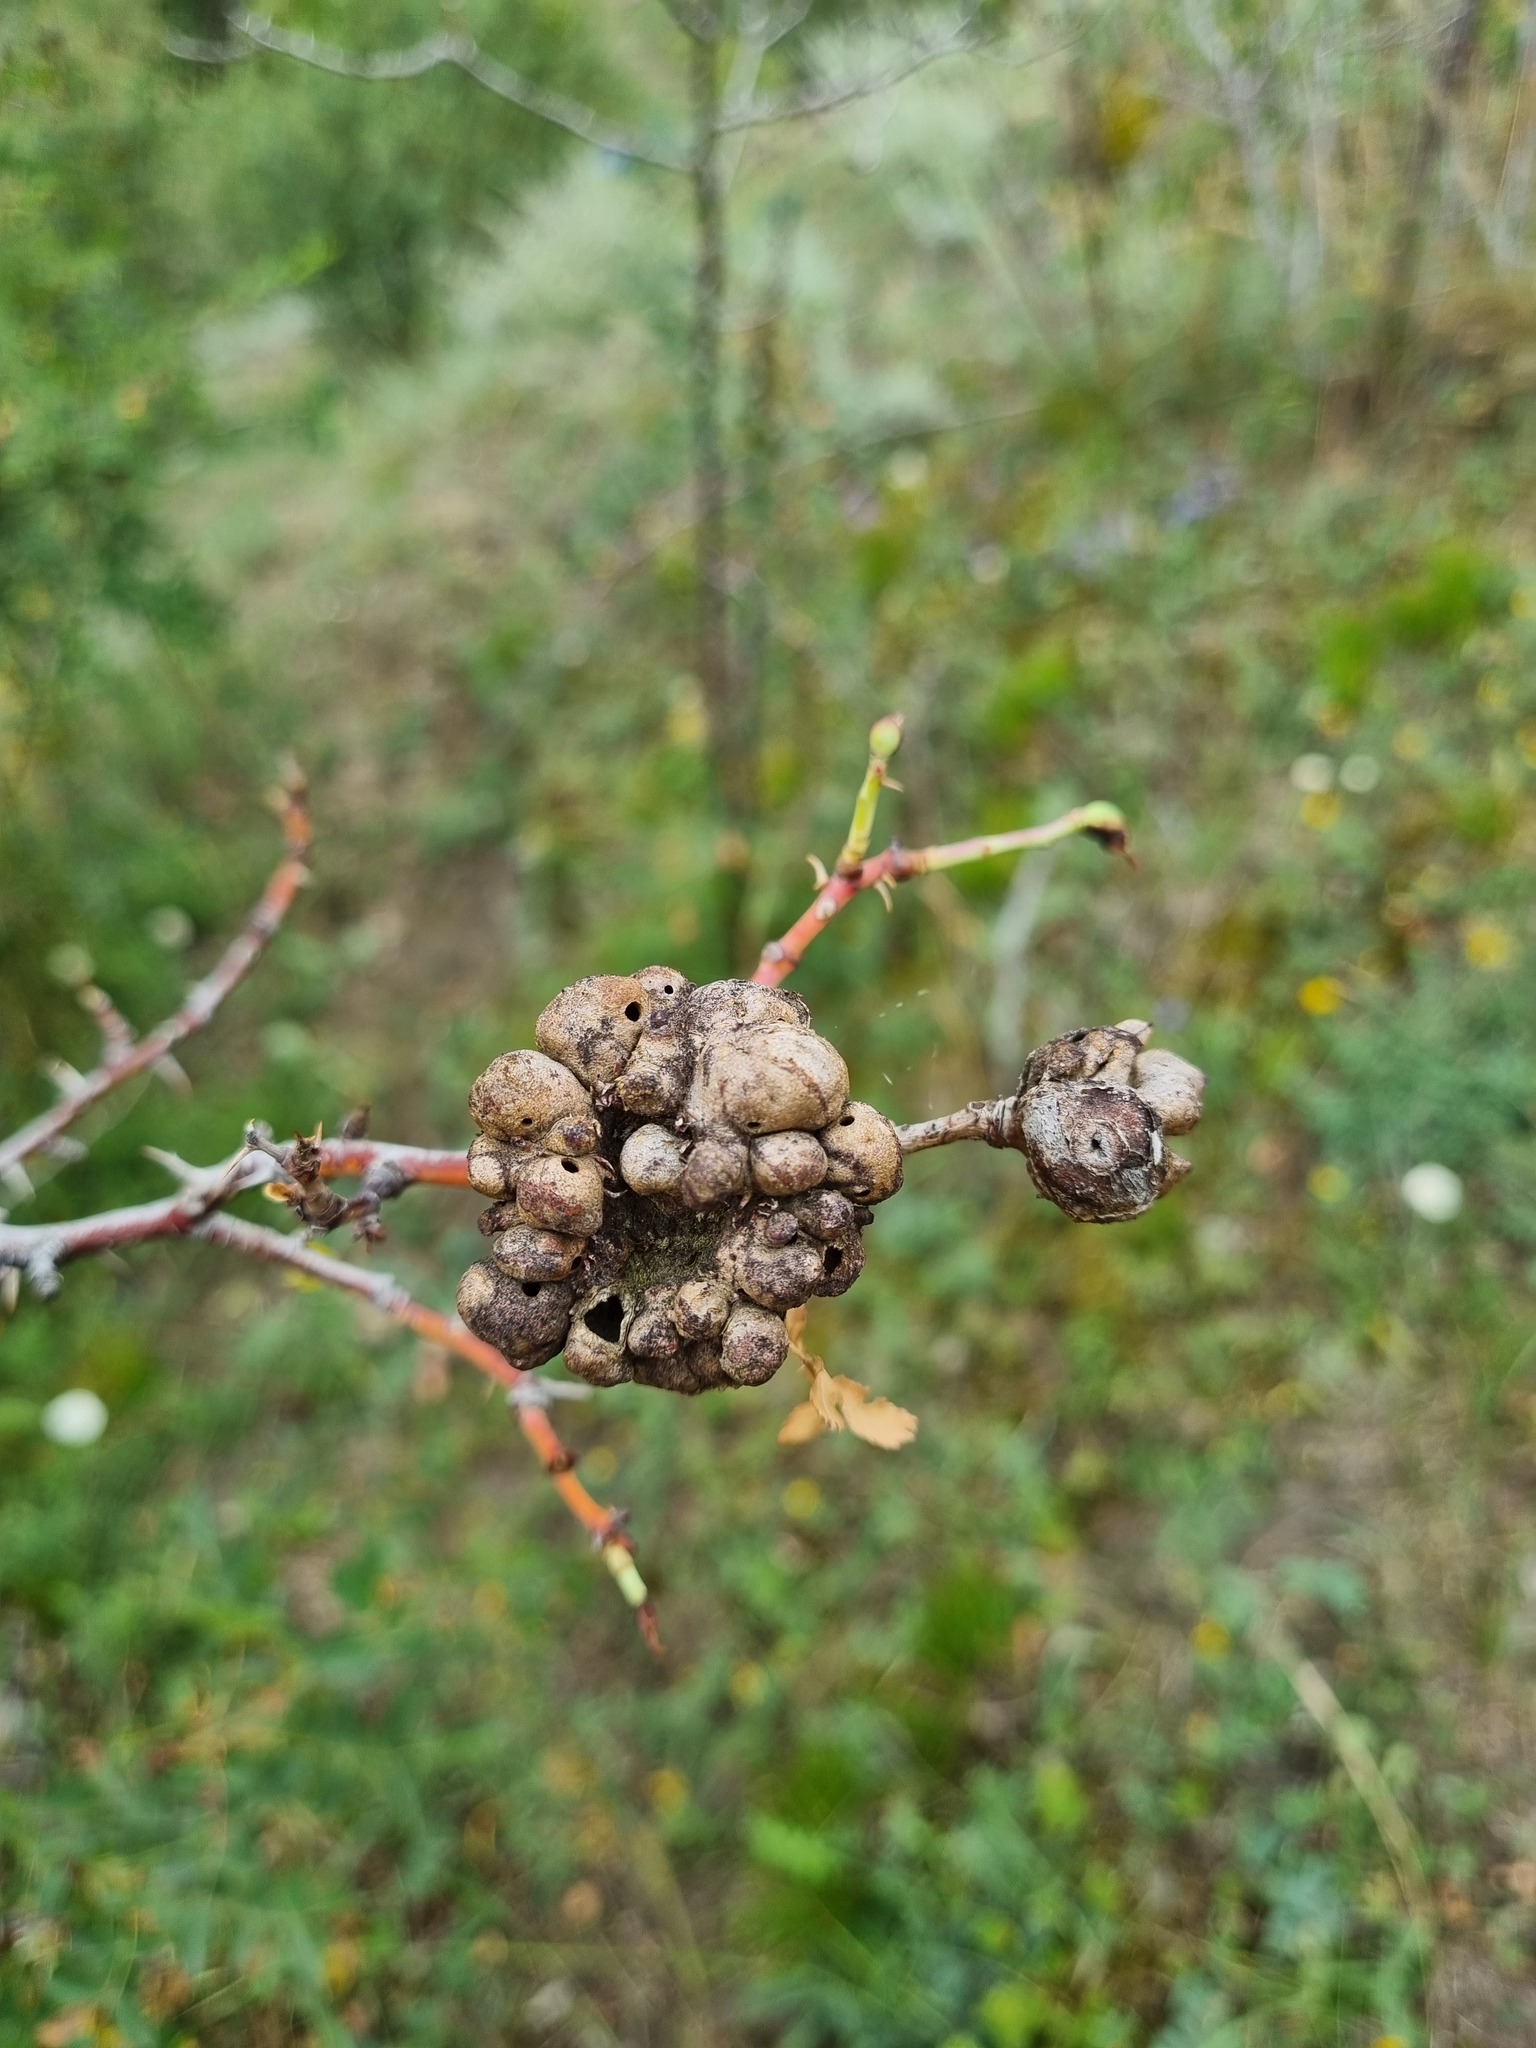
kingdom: Animalia
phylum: Arthropoda
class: Insecta
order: Hymenoptera
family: Cynipidae
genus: Diplolepis
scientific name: Diplolepis fructuum
